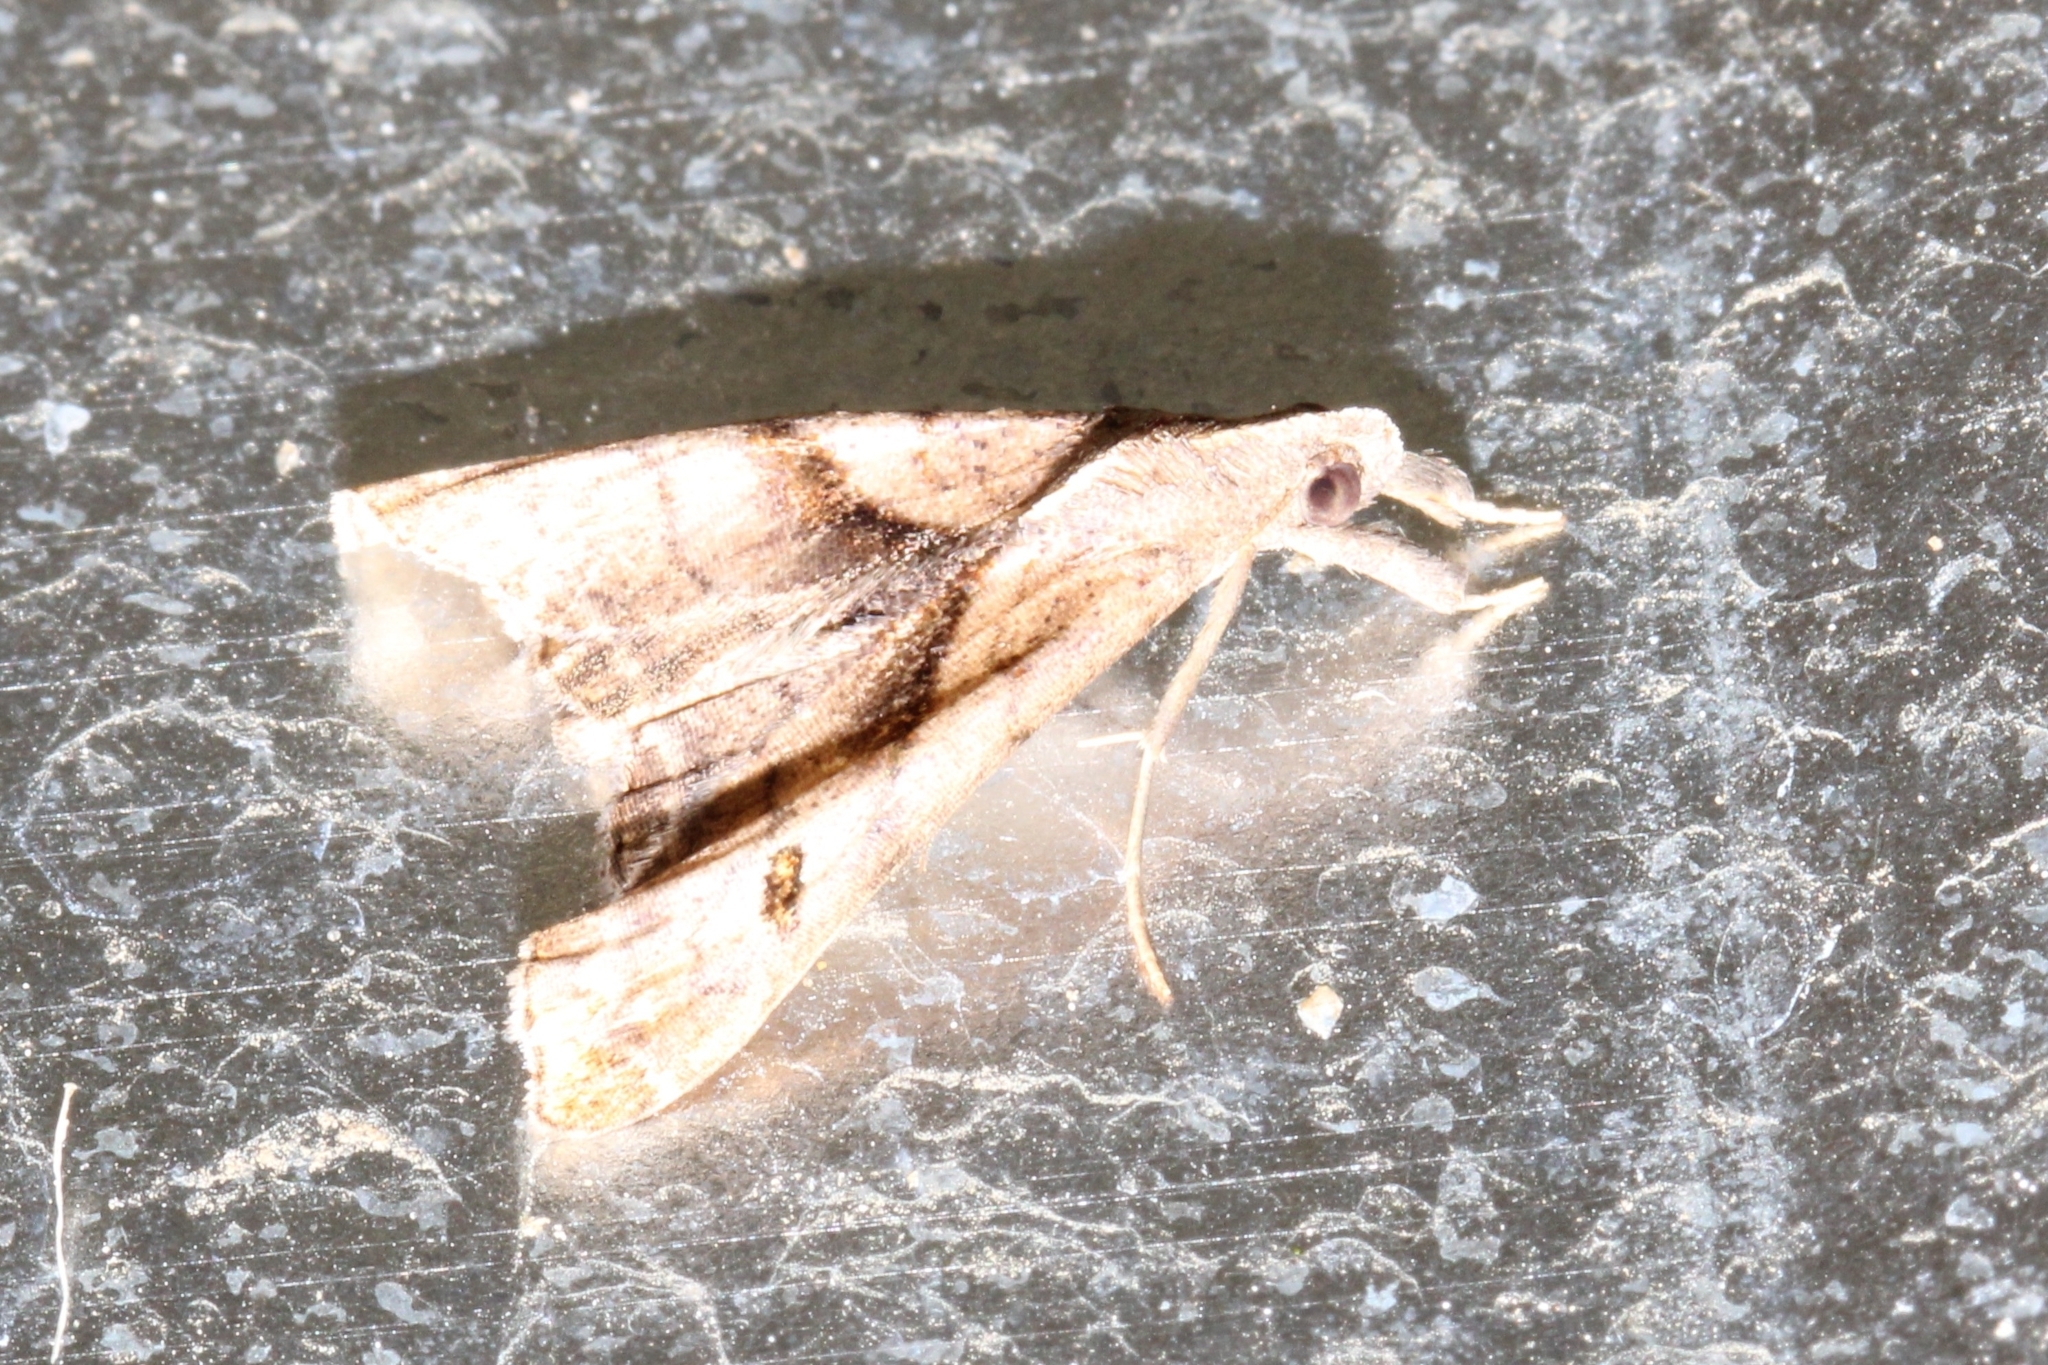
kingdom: Animalia
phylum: Arthropoda
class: Insecta
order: Lepidoptera
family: Erebidae
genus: Palthis
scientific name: Palthis angulalis
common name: Dark-spotted palthis moth
